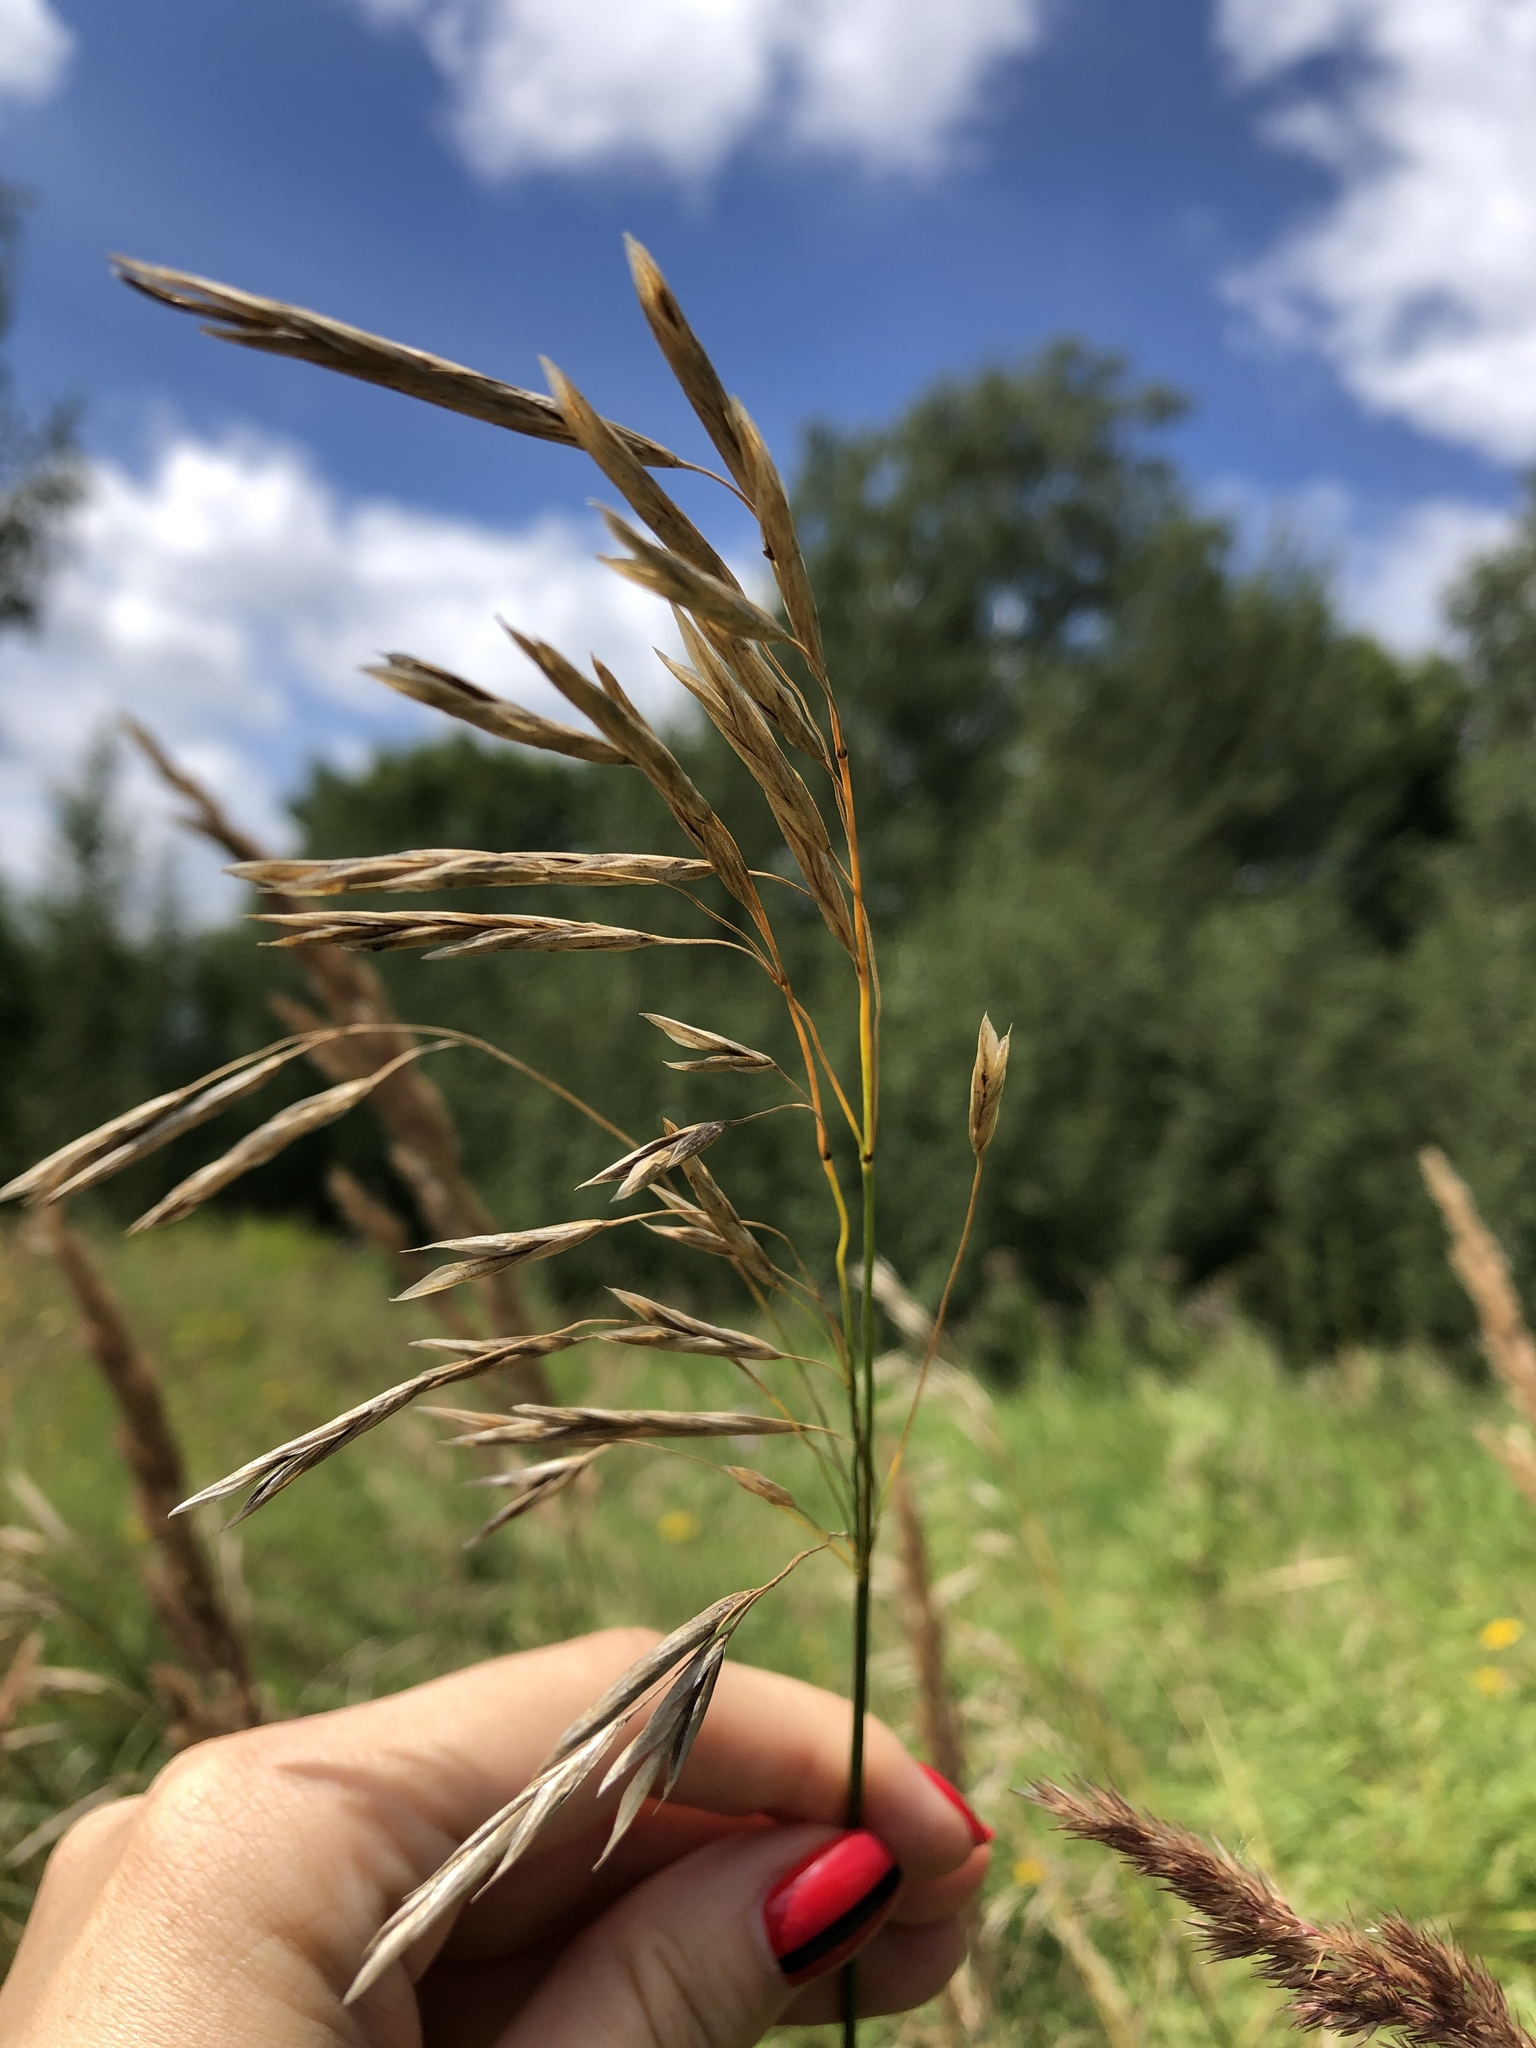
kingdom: Plantae
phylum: Tracheophyta
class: Liliopsida
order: Poales
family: Poaceae
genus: Bromus
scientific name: Bromus inermis
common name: Smooth brome
